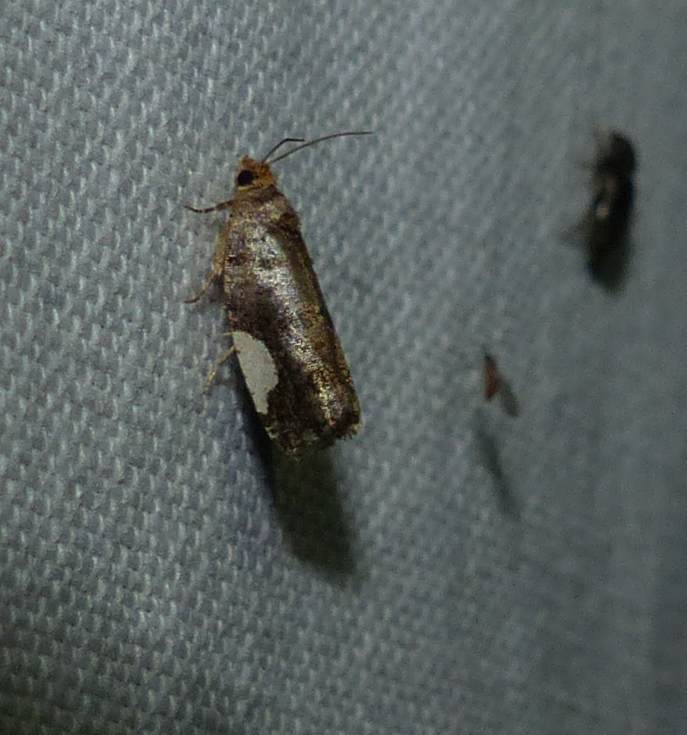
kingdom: Animalia
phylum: Arthropoda
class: Insecta
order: Lepidoptera
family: Tortricidae
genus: Hedya
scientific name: Hedya chionosema
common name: White-spotted hedya moth
